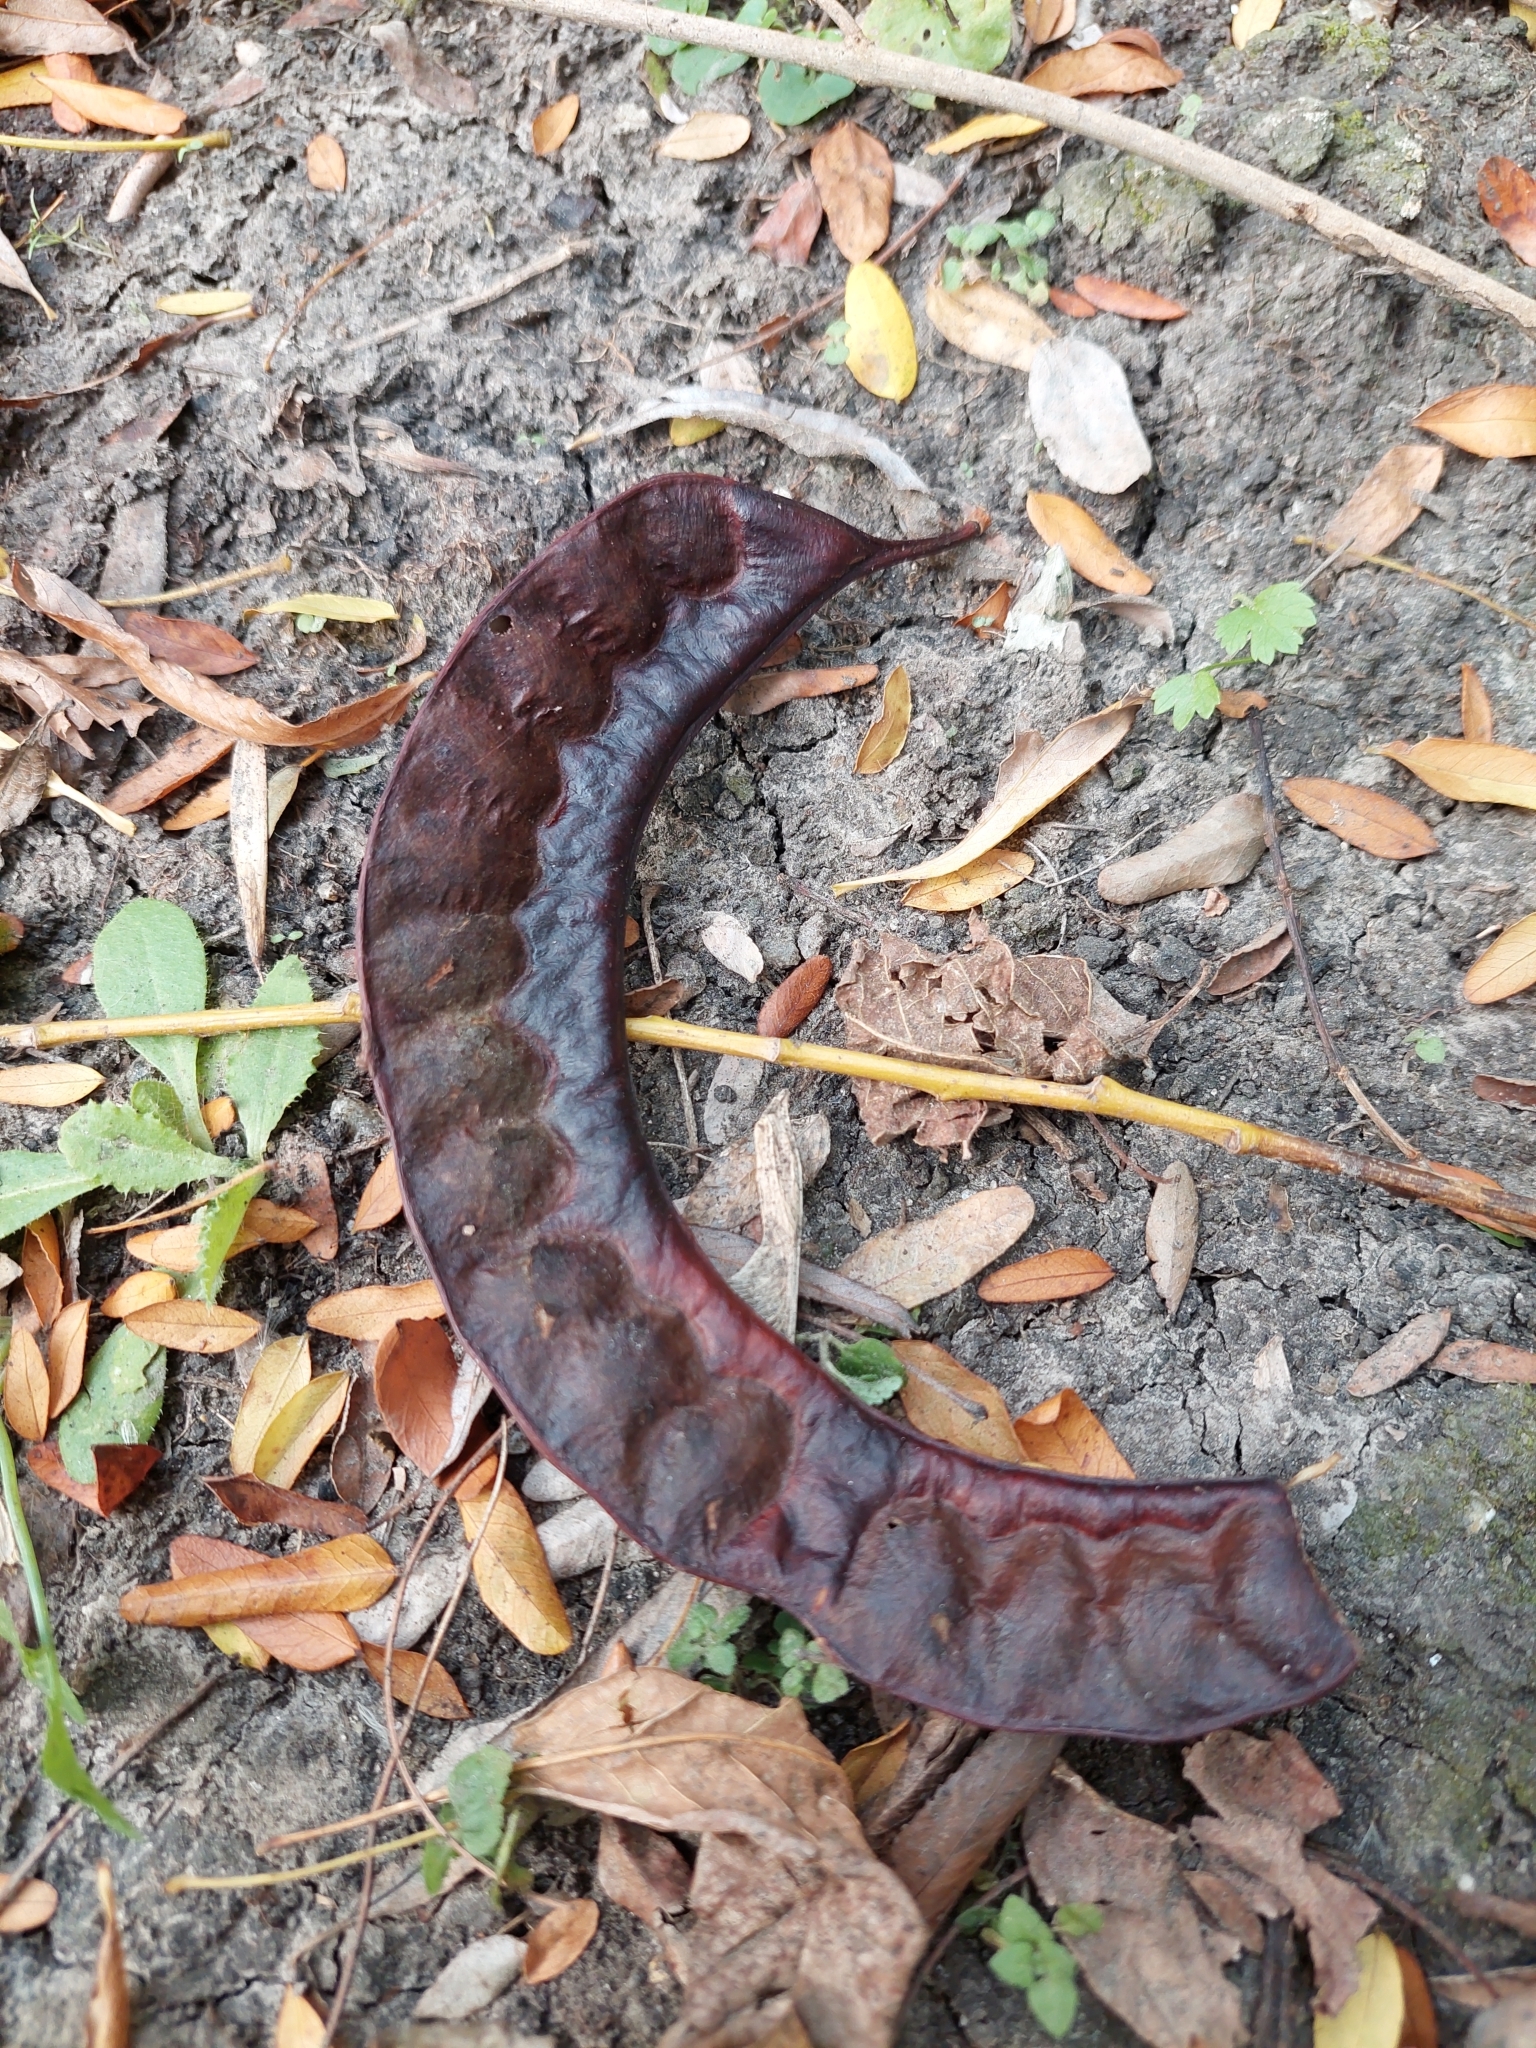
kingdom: Plantae
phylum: Tracheophyta
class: Magnoliopsida
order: Fabales
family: Fabaceae
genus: Gleditsia
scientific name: Gleditsia triacanthos
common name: Common honeylocust
